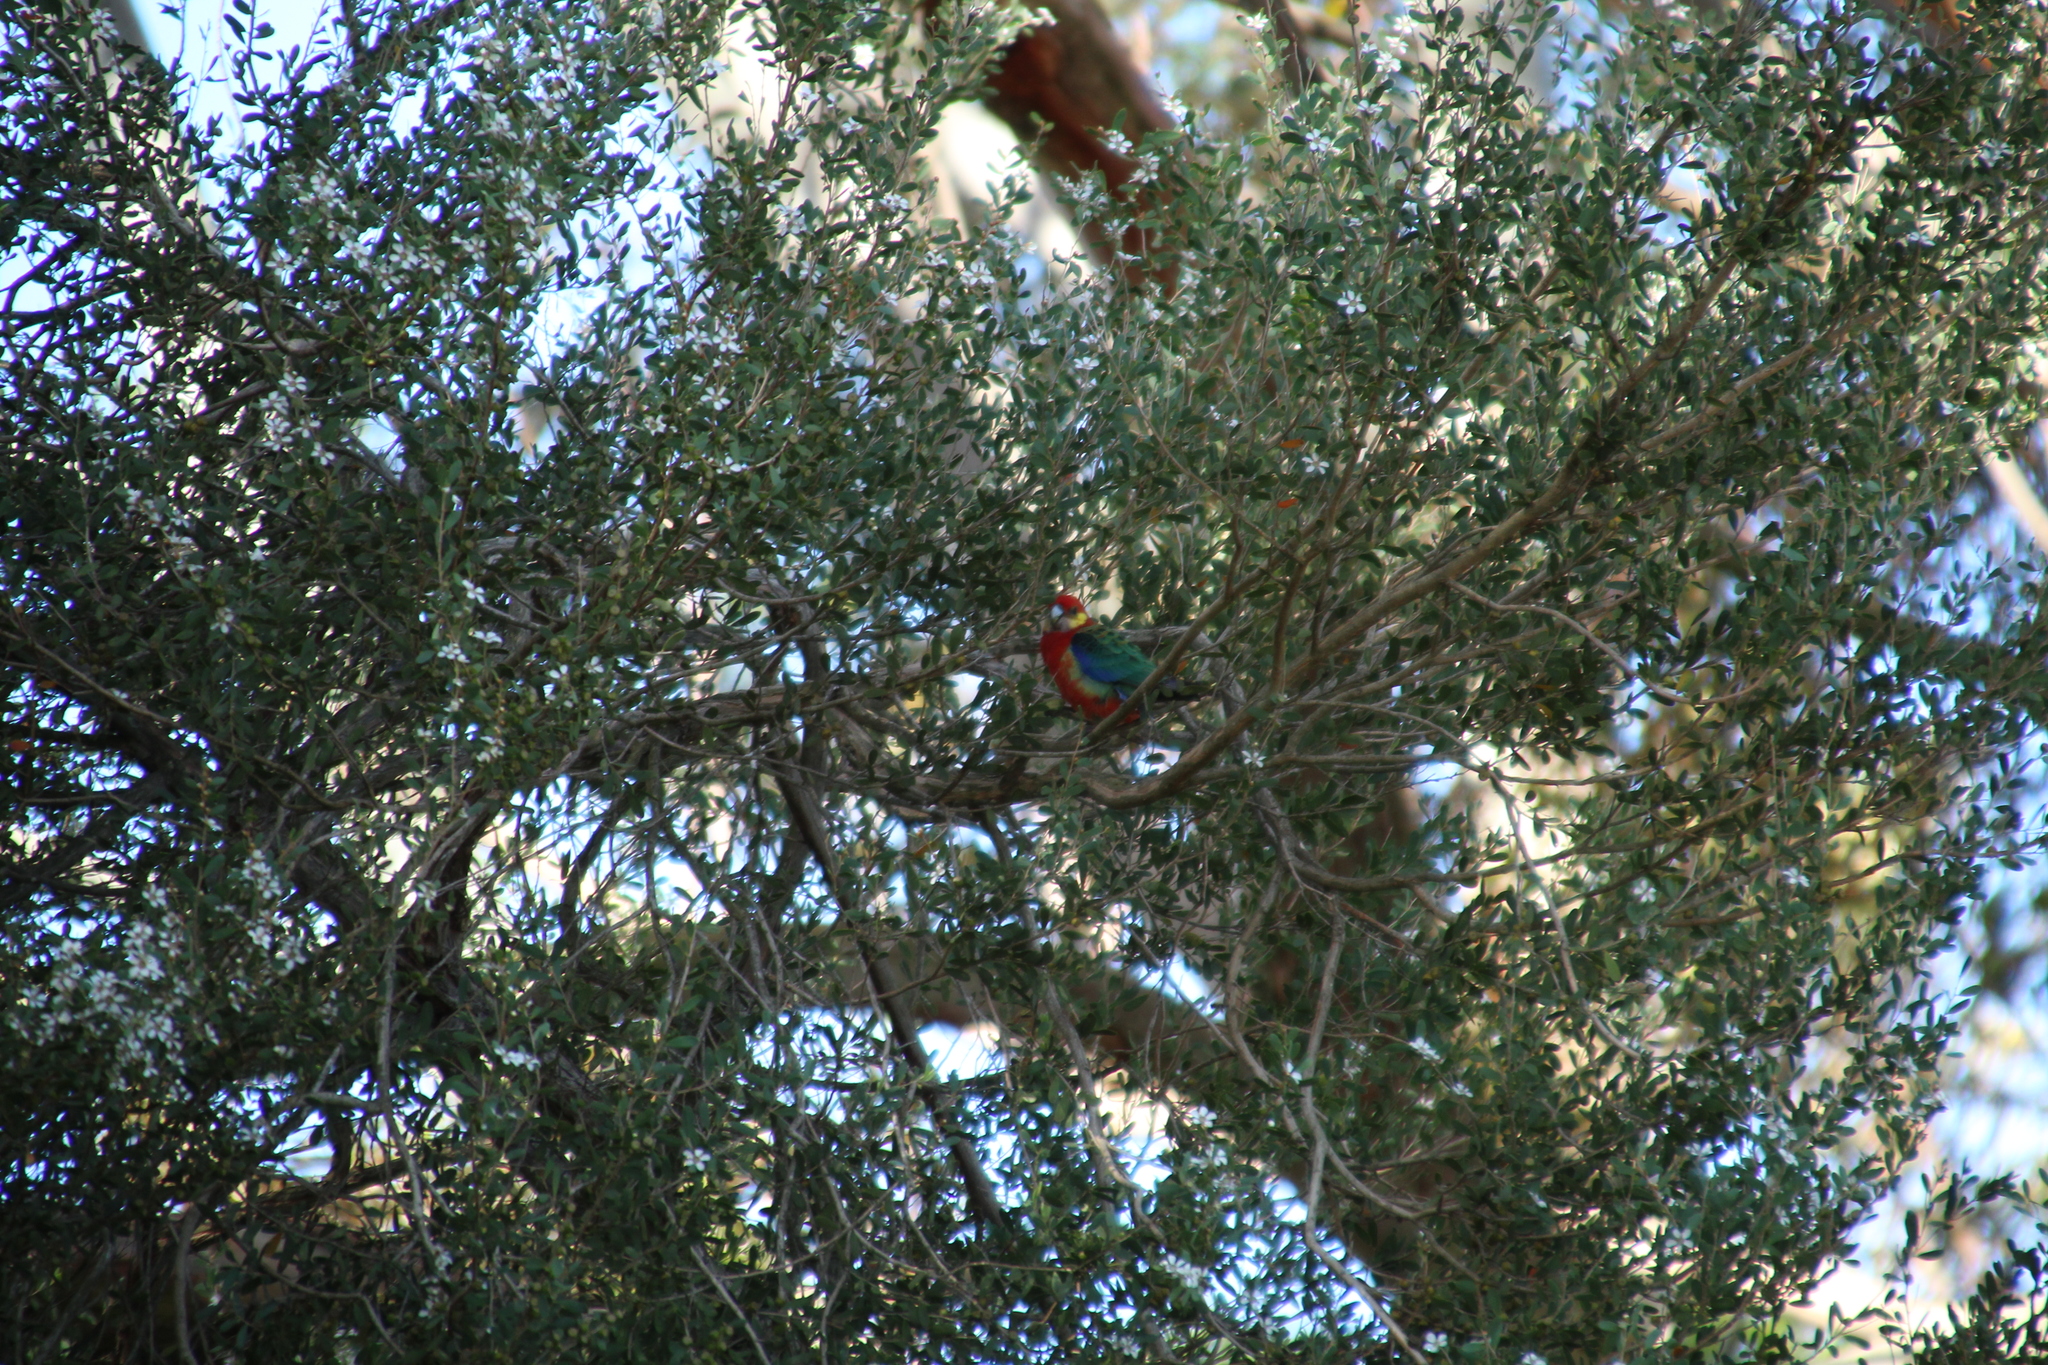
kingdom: Animalia
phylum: Chordata
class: Aves
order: Psittaciformes
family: Psittacidae
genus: Platycercus
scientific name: Platycercus icterotis
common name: Western rosella
